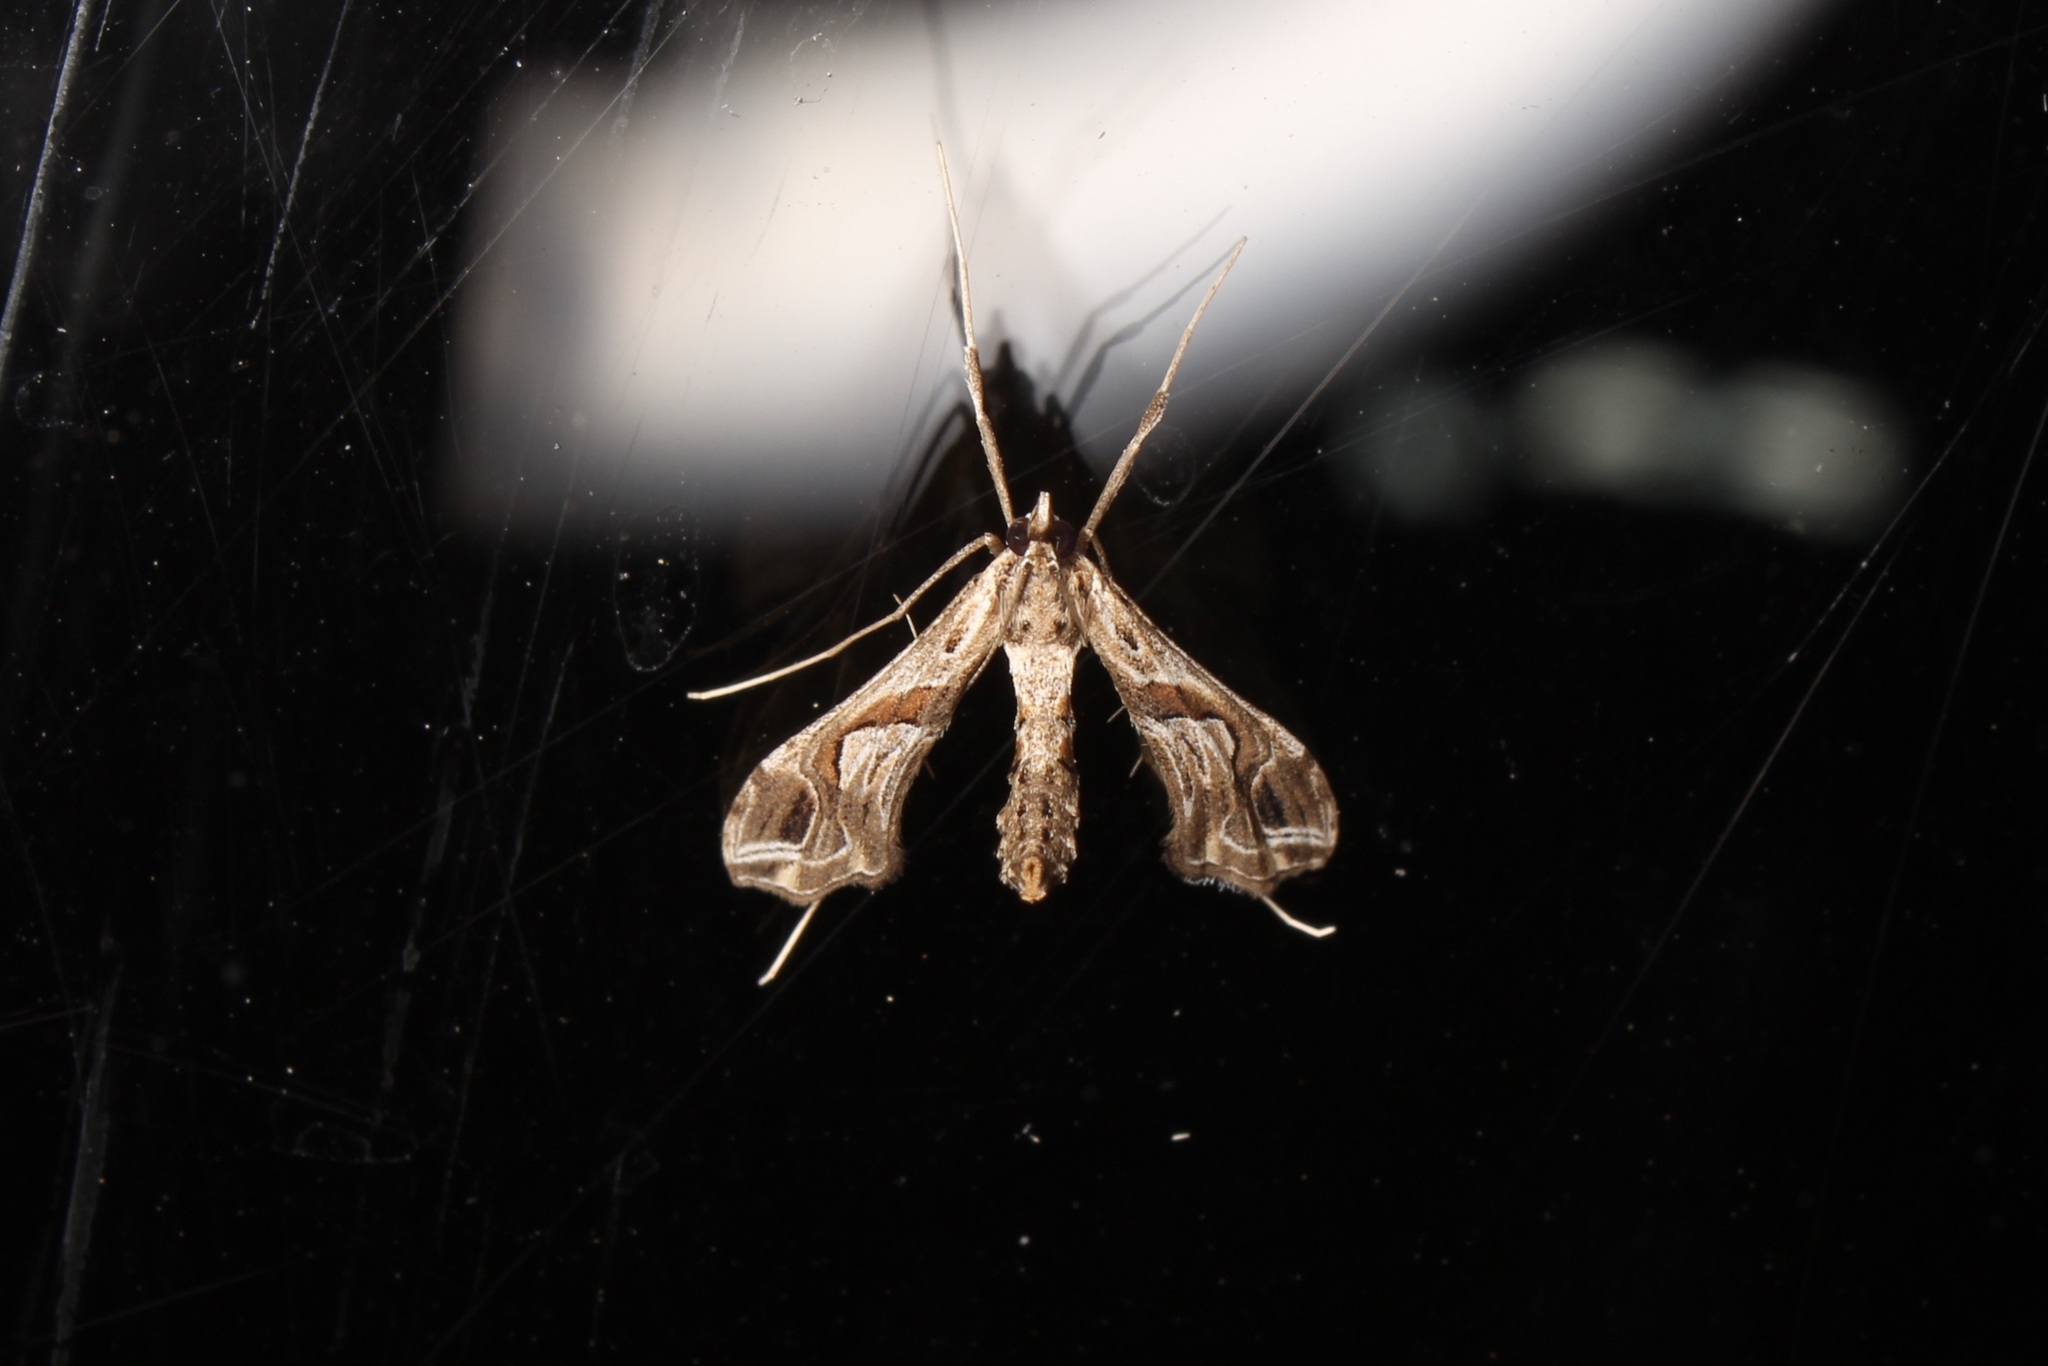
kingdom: Animalia
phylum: Arthropoda
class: Insecta
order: Lepidoptera
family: Crambidae
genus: Lineodes
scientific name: Lineodes integra
